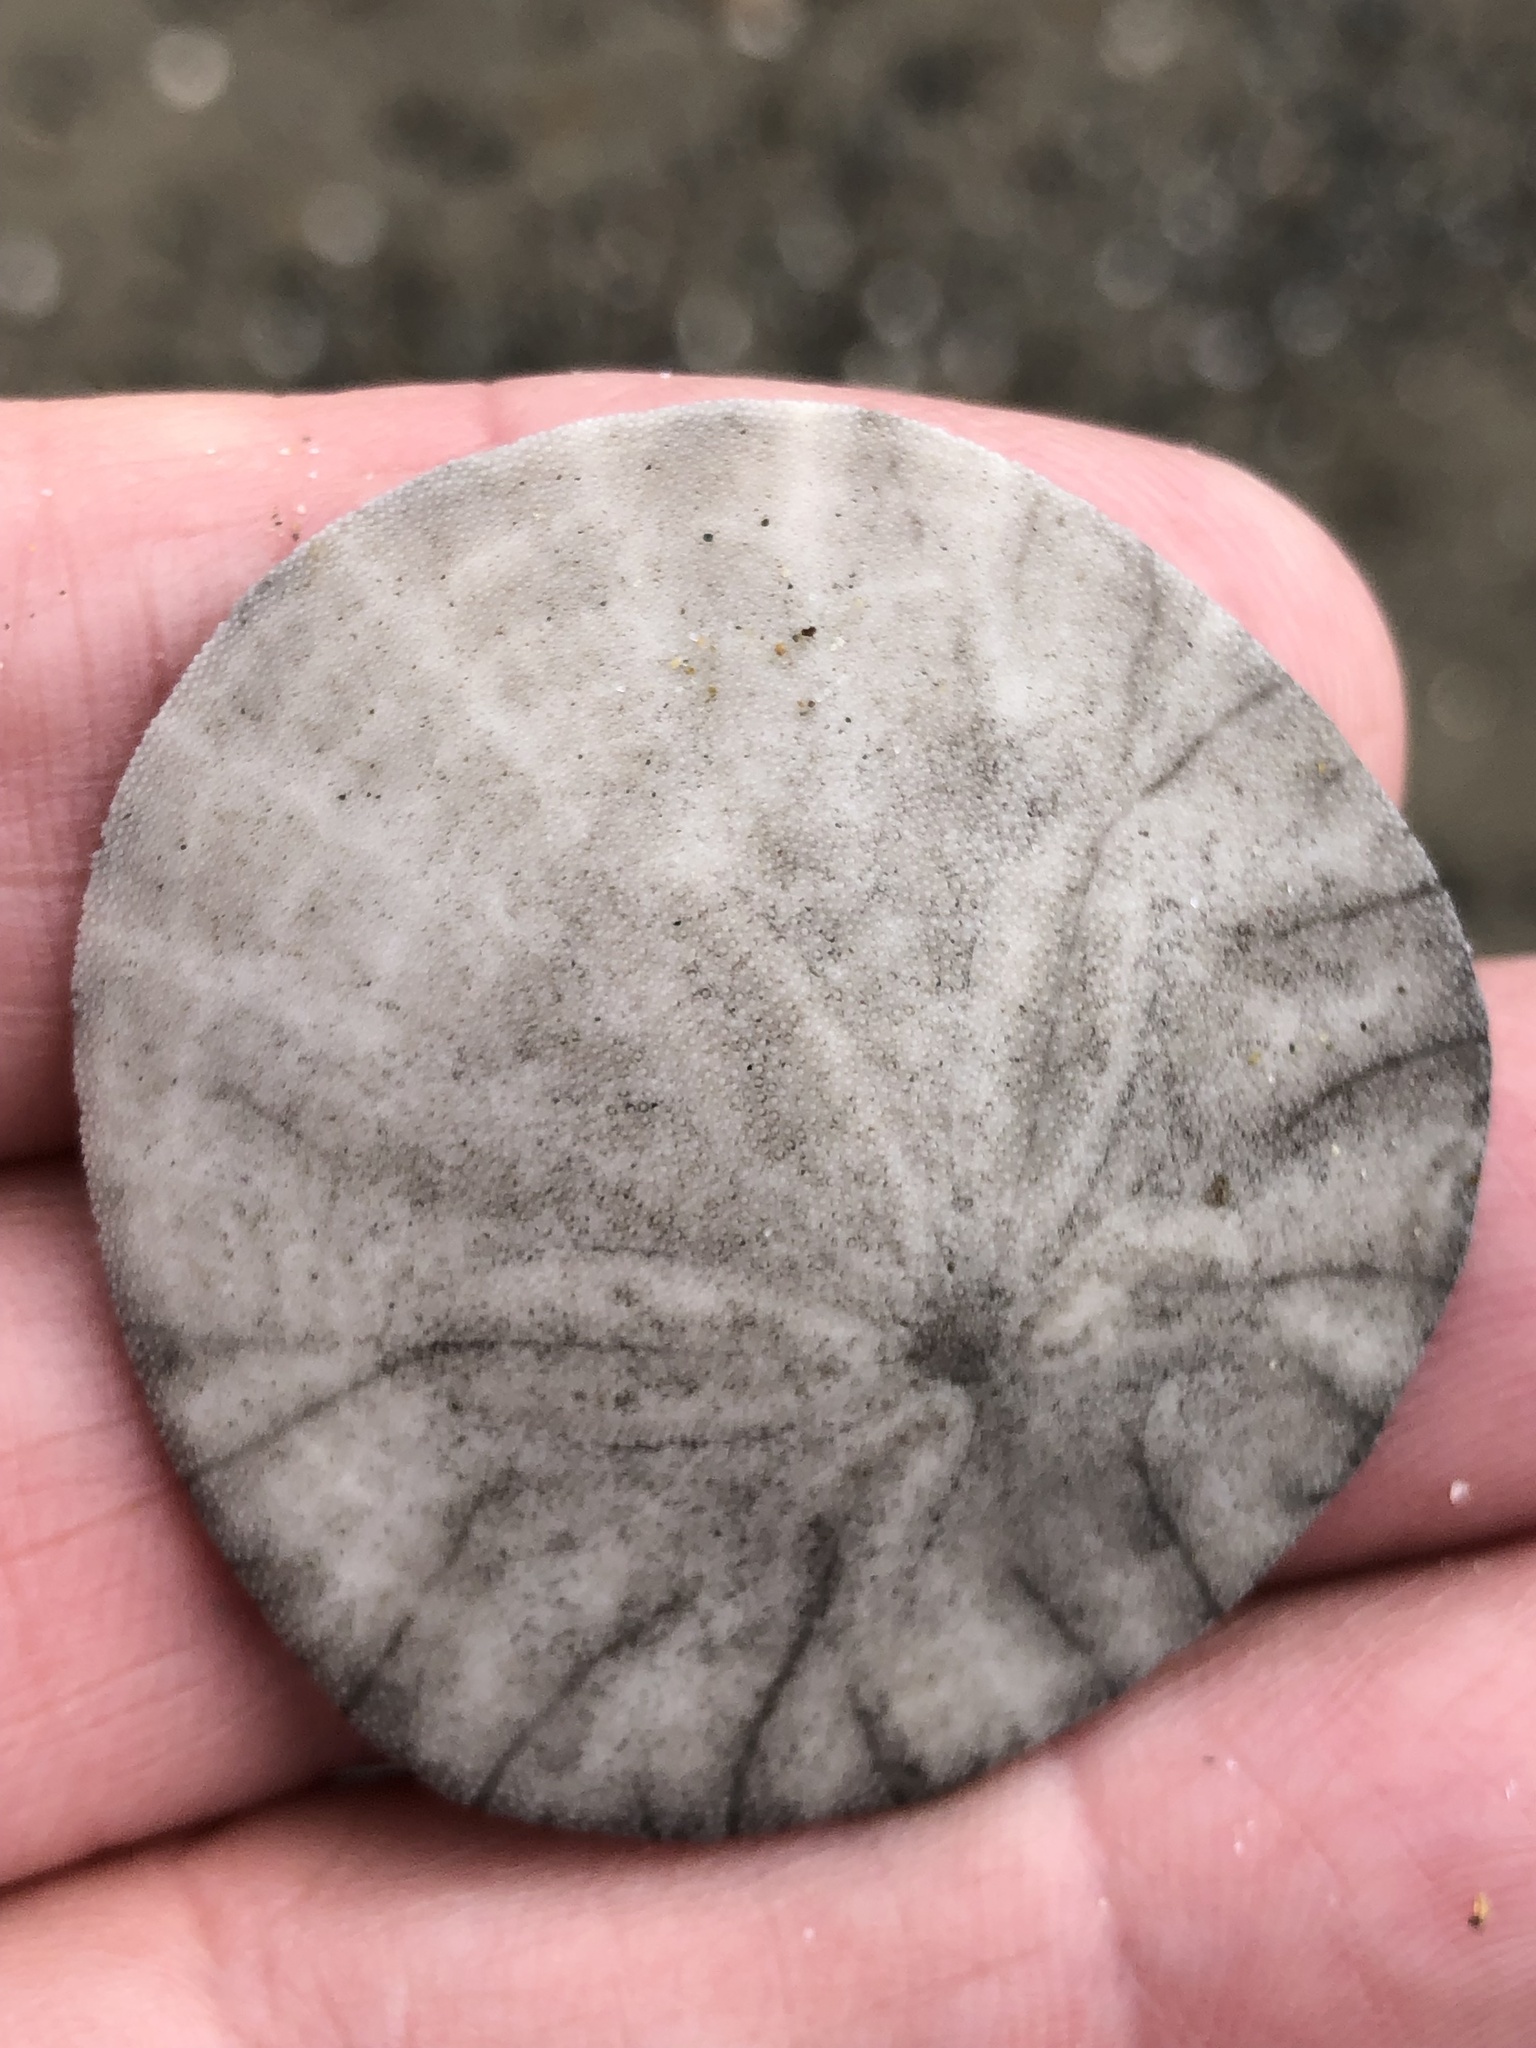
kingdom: Animalia
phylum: Echinodermata
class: Echinoidea
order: Echinolampadacea
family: Dendrasteridae
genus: Dendraster
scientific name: Dendraster excentricus
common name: Eccentric sand dollar sea urchin
